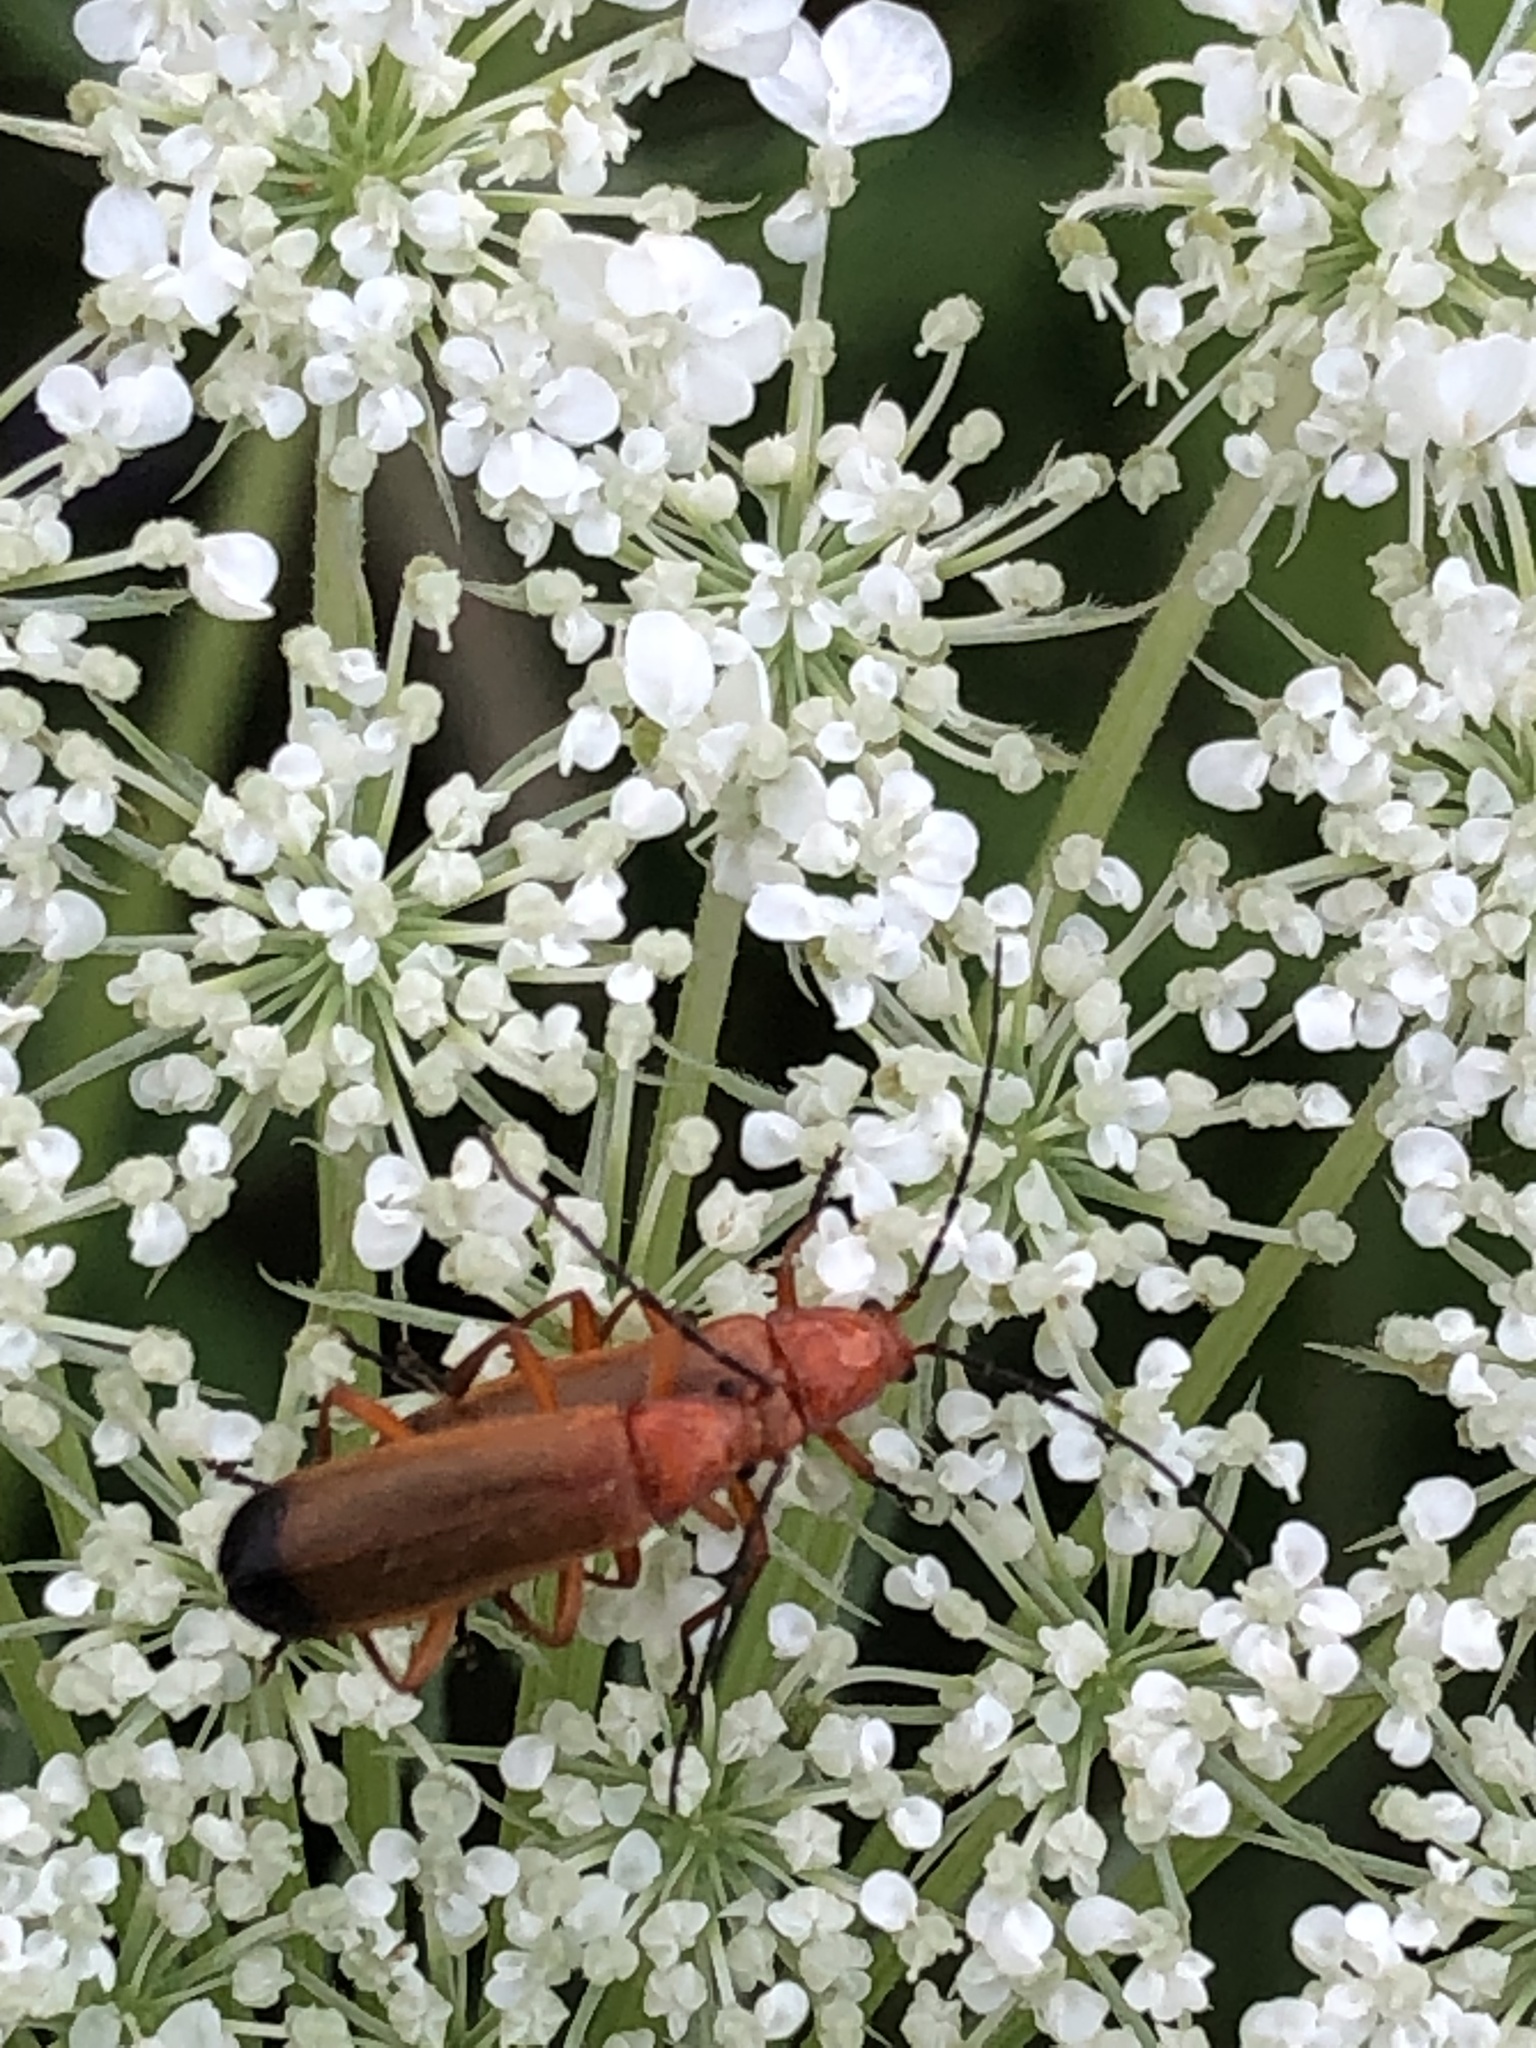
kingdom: Animalia
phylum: Arthropoda
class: Insecta
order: Coleoptera
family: Cantharidae
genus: Rhagonycha
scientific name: Rhagonycha fulva
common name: Common red soldier beetle
